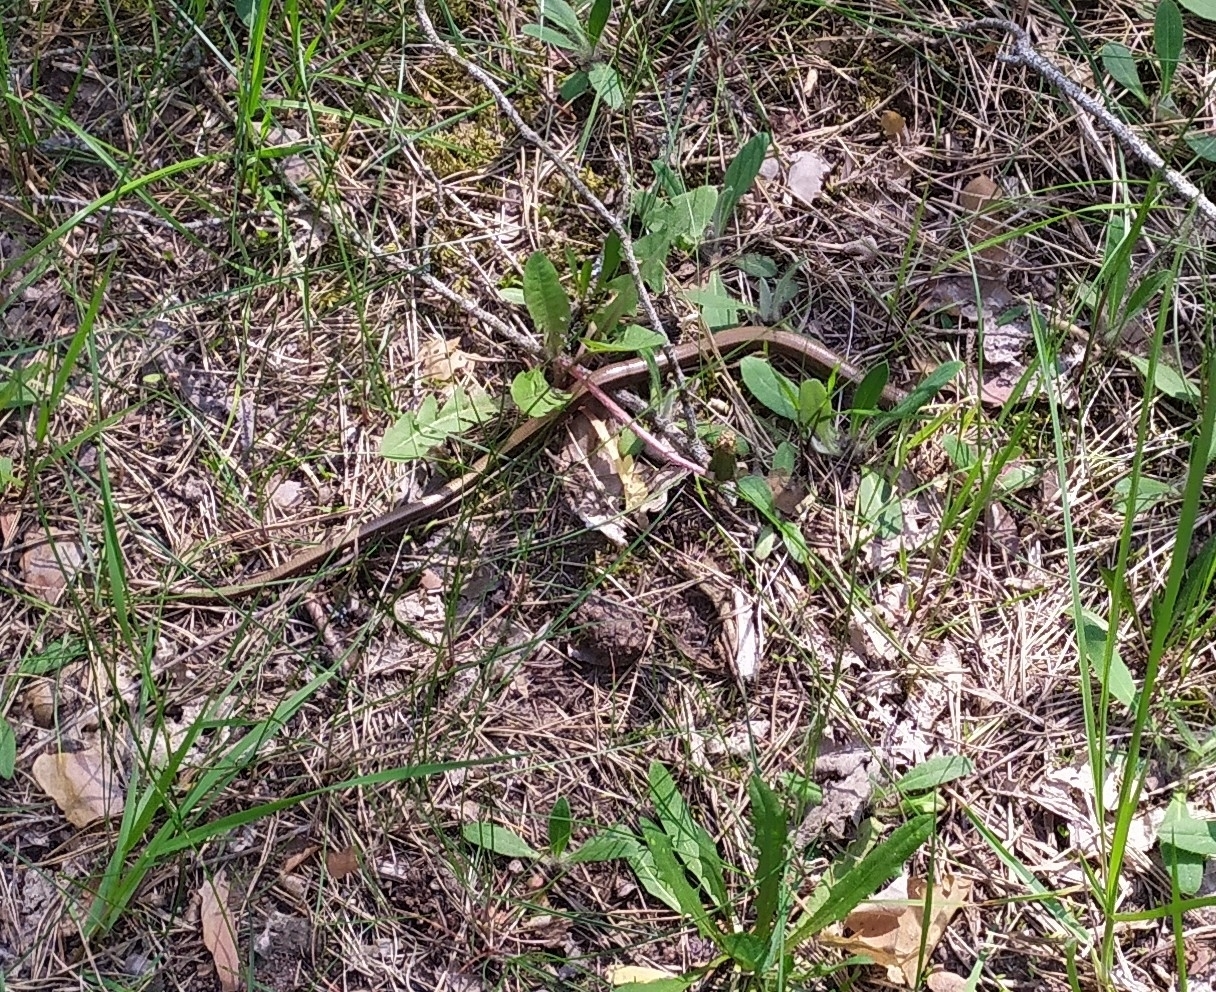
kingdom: Animalia
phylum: Chordata
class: Squamata
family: Anguidae
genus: Anguis
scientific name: Anguis colchica
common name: Slow worm
